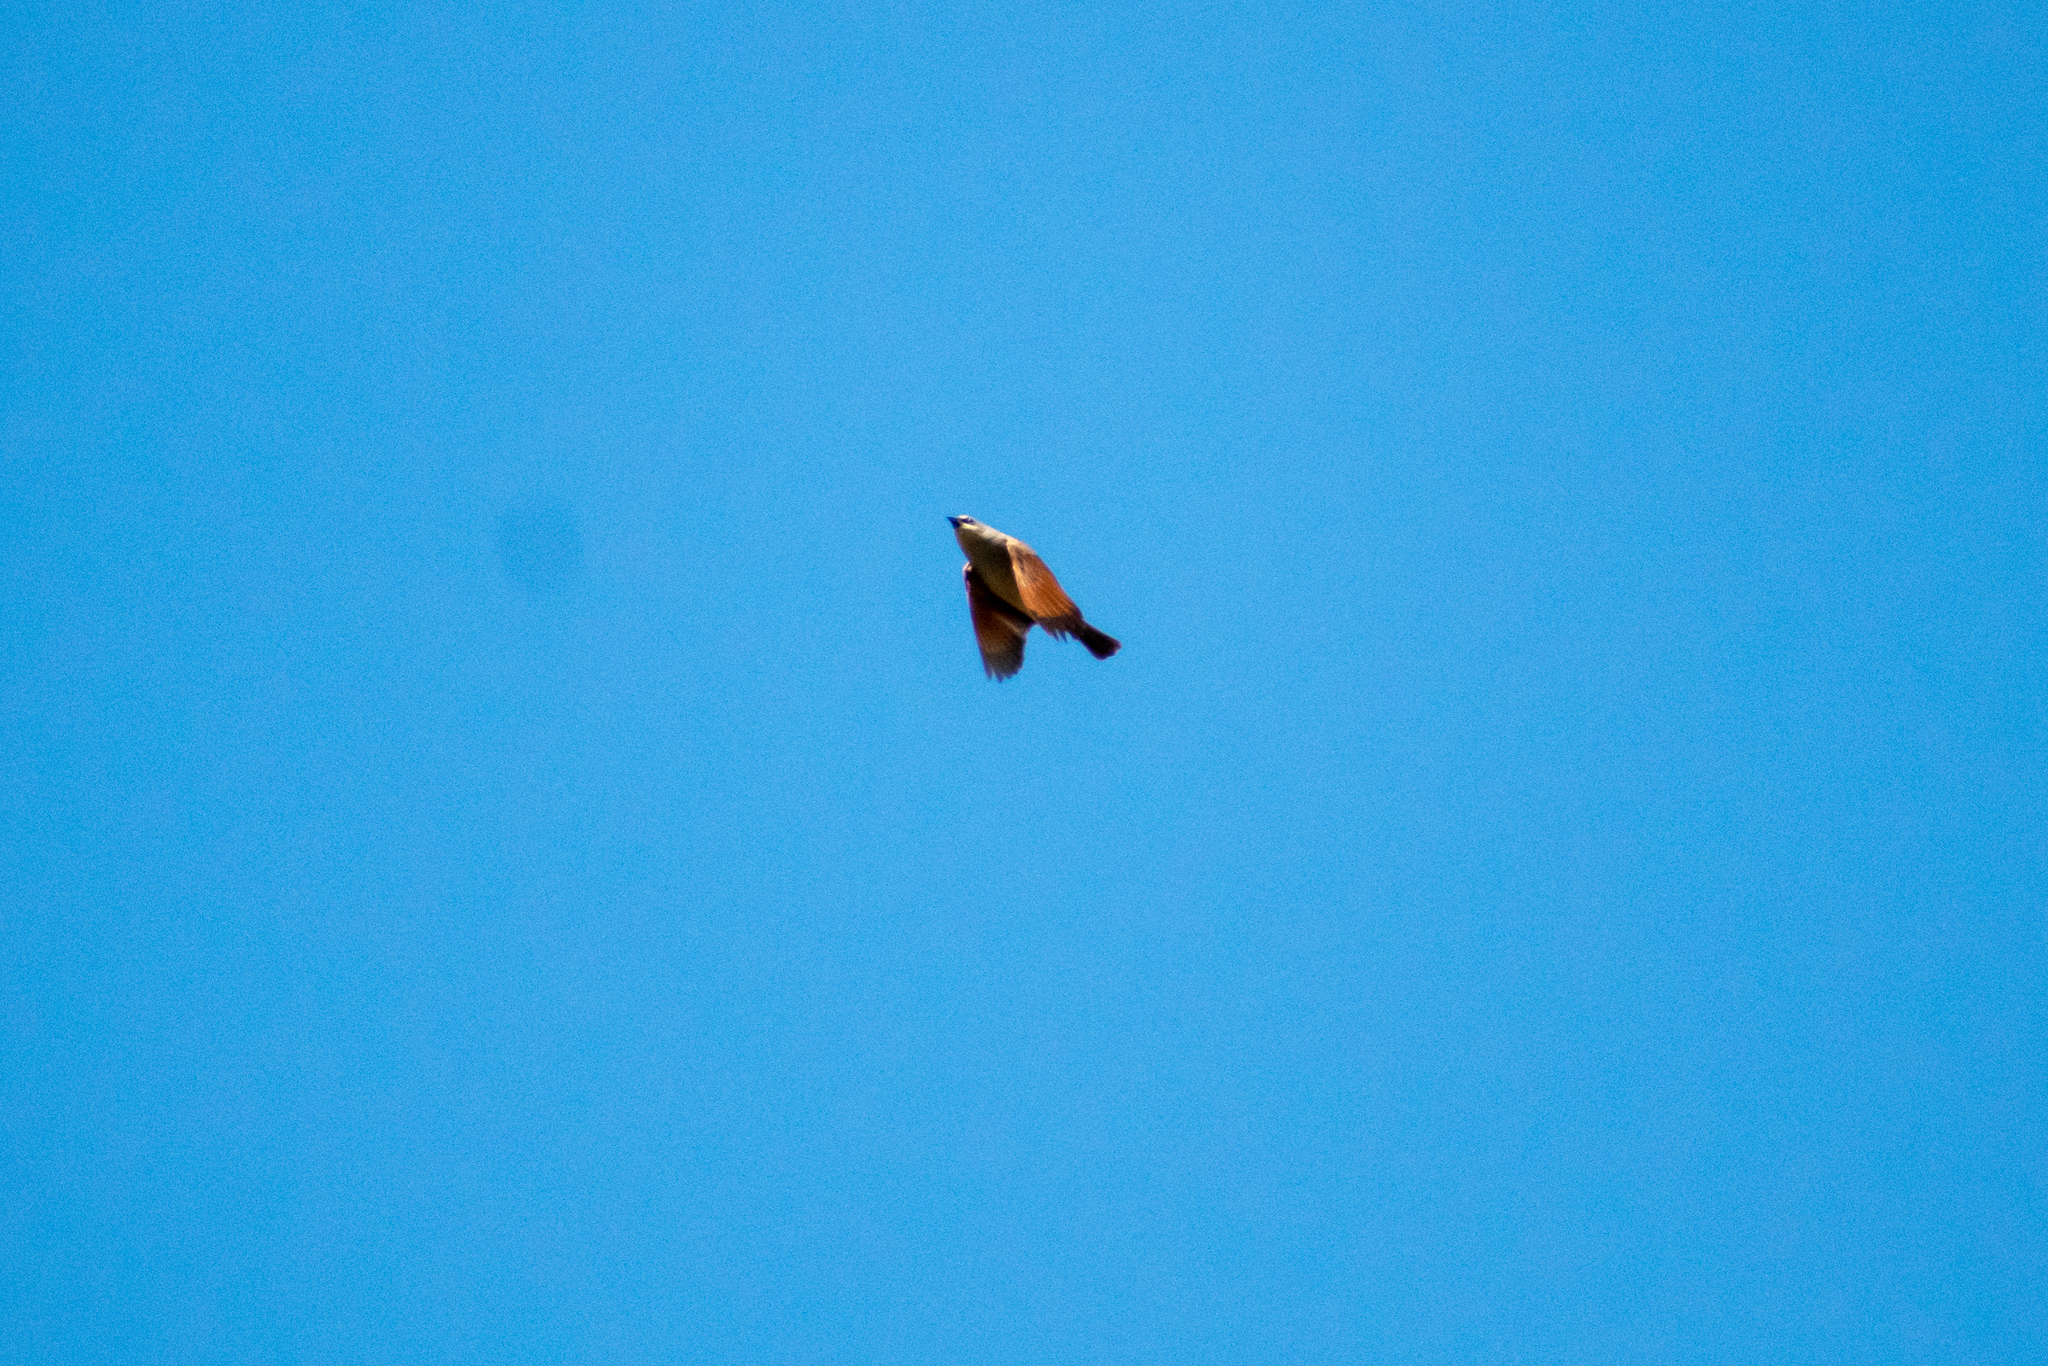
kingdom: Animalia
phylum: Chordata
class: Aves
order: Passeriformes
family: Icteridae
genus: Agelaioides
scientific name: Agelaioides badius
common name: Baywing
